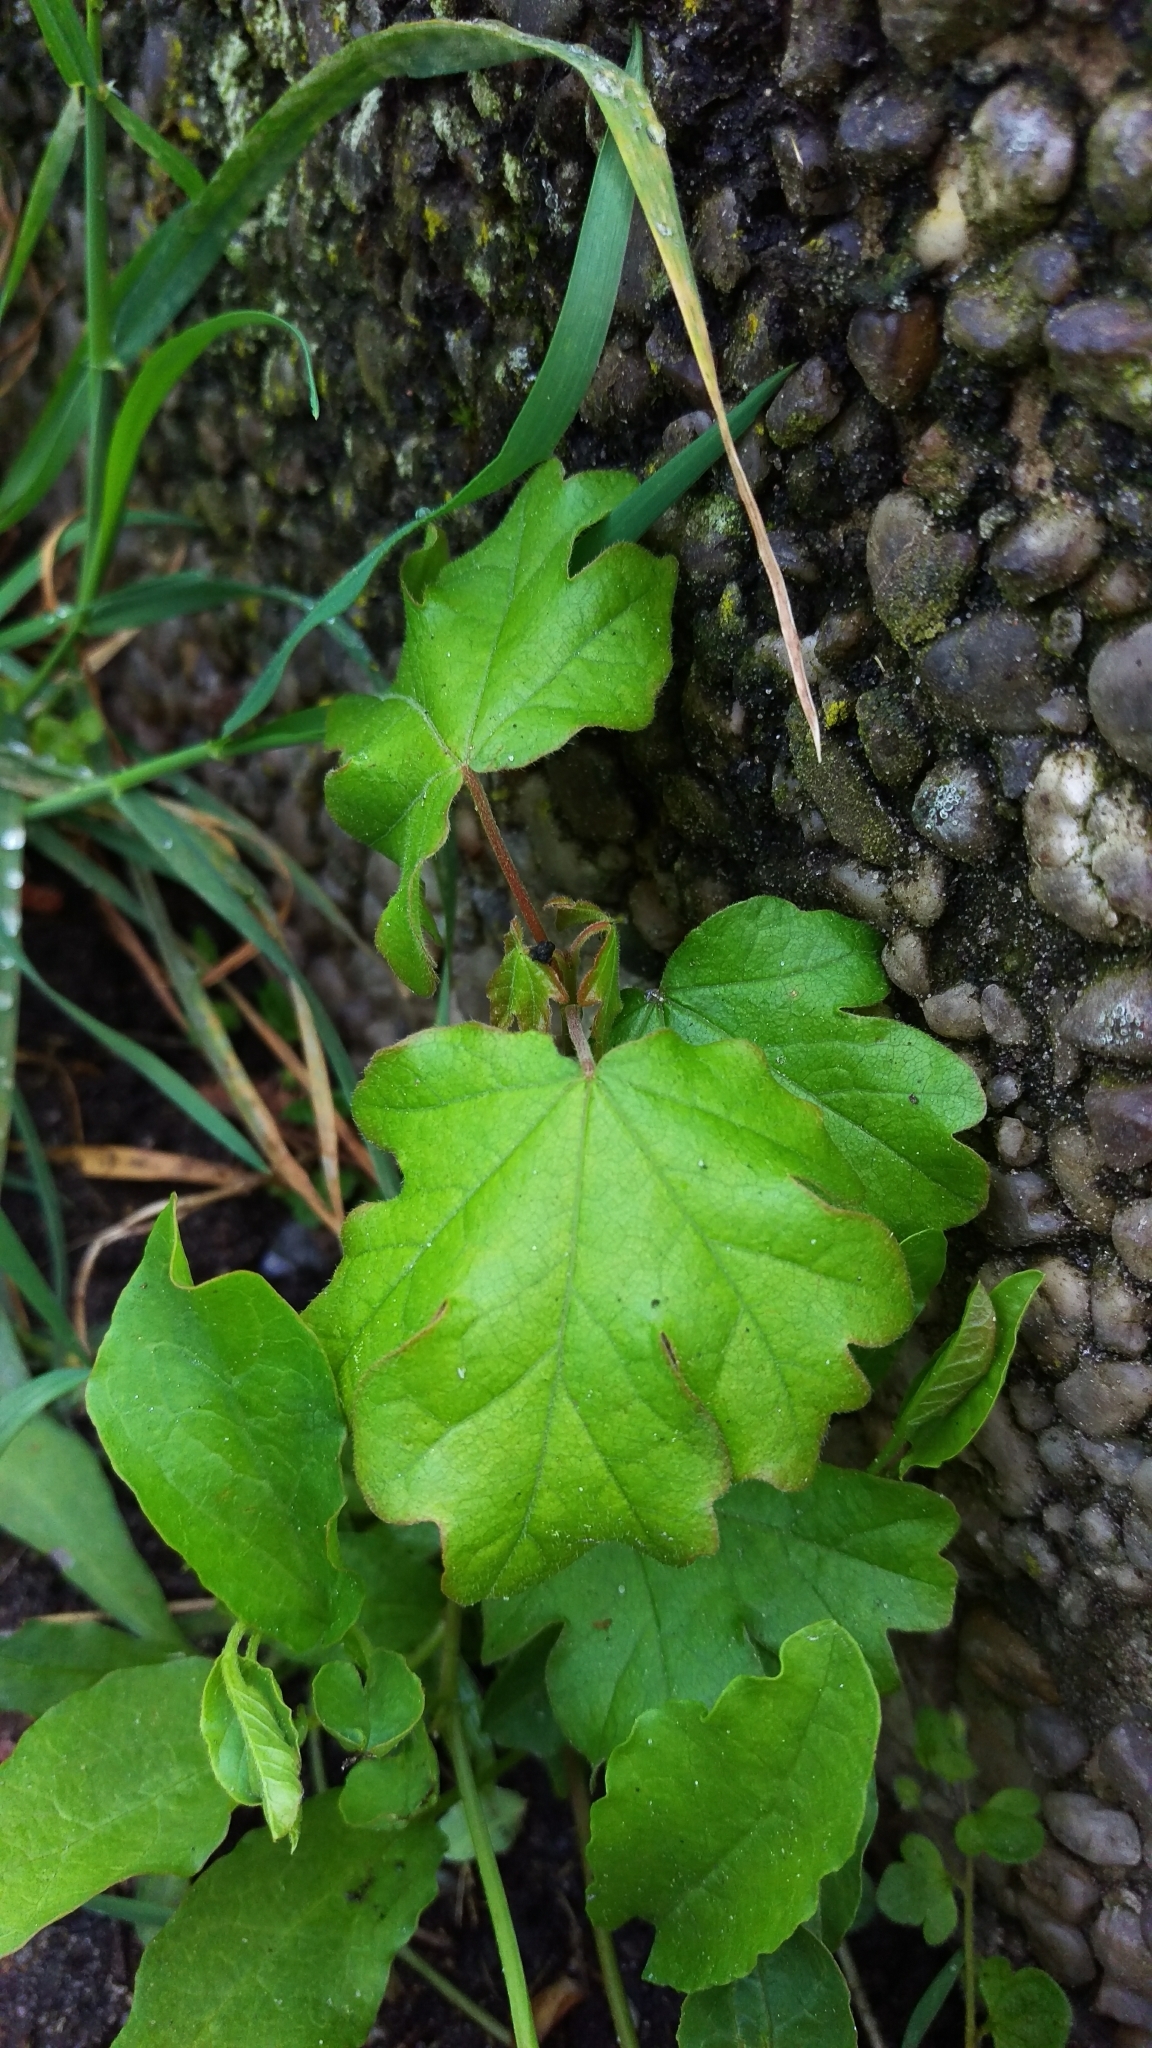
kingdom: Plantae
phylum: Tracheophyta
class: Magnoliopsida
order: Sapindales
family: Sapindaceae
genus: Acer
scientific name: Acer campestre
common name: Field maple
